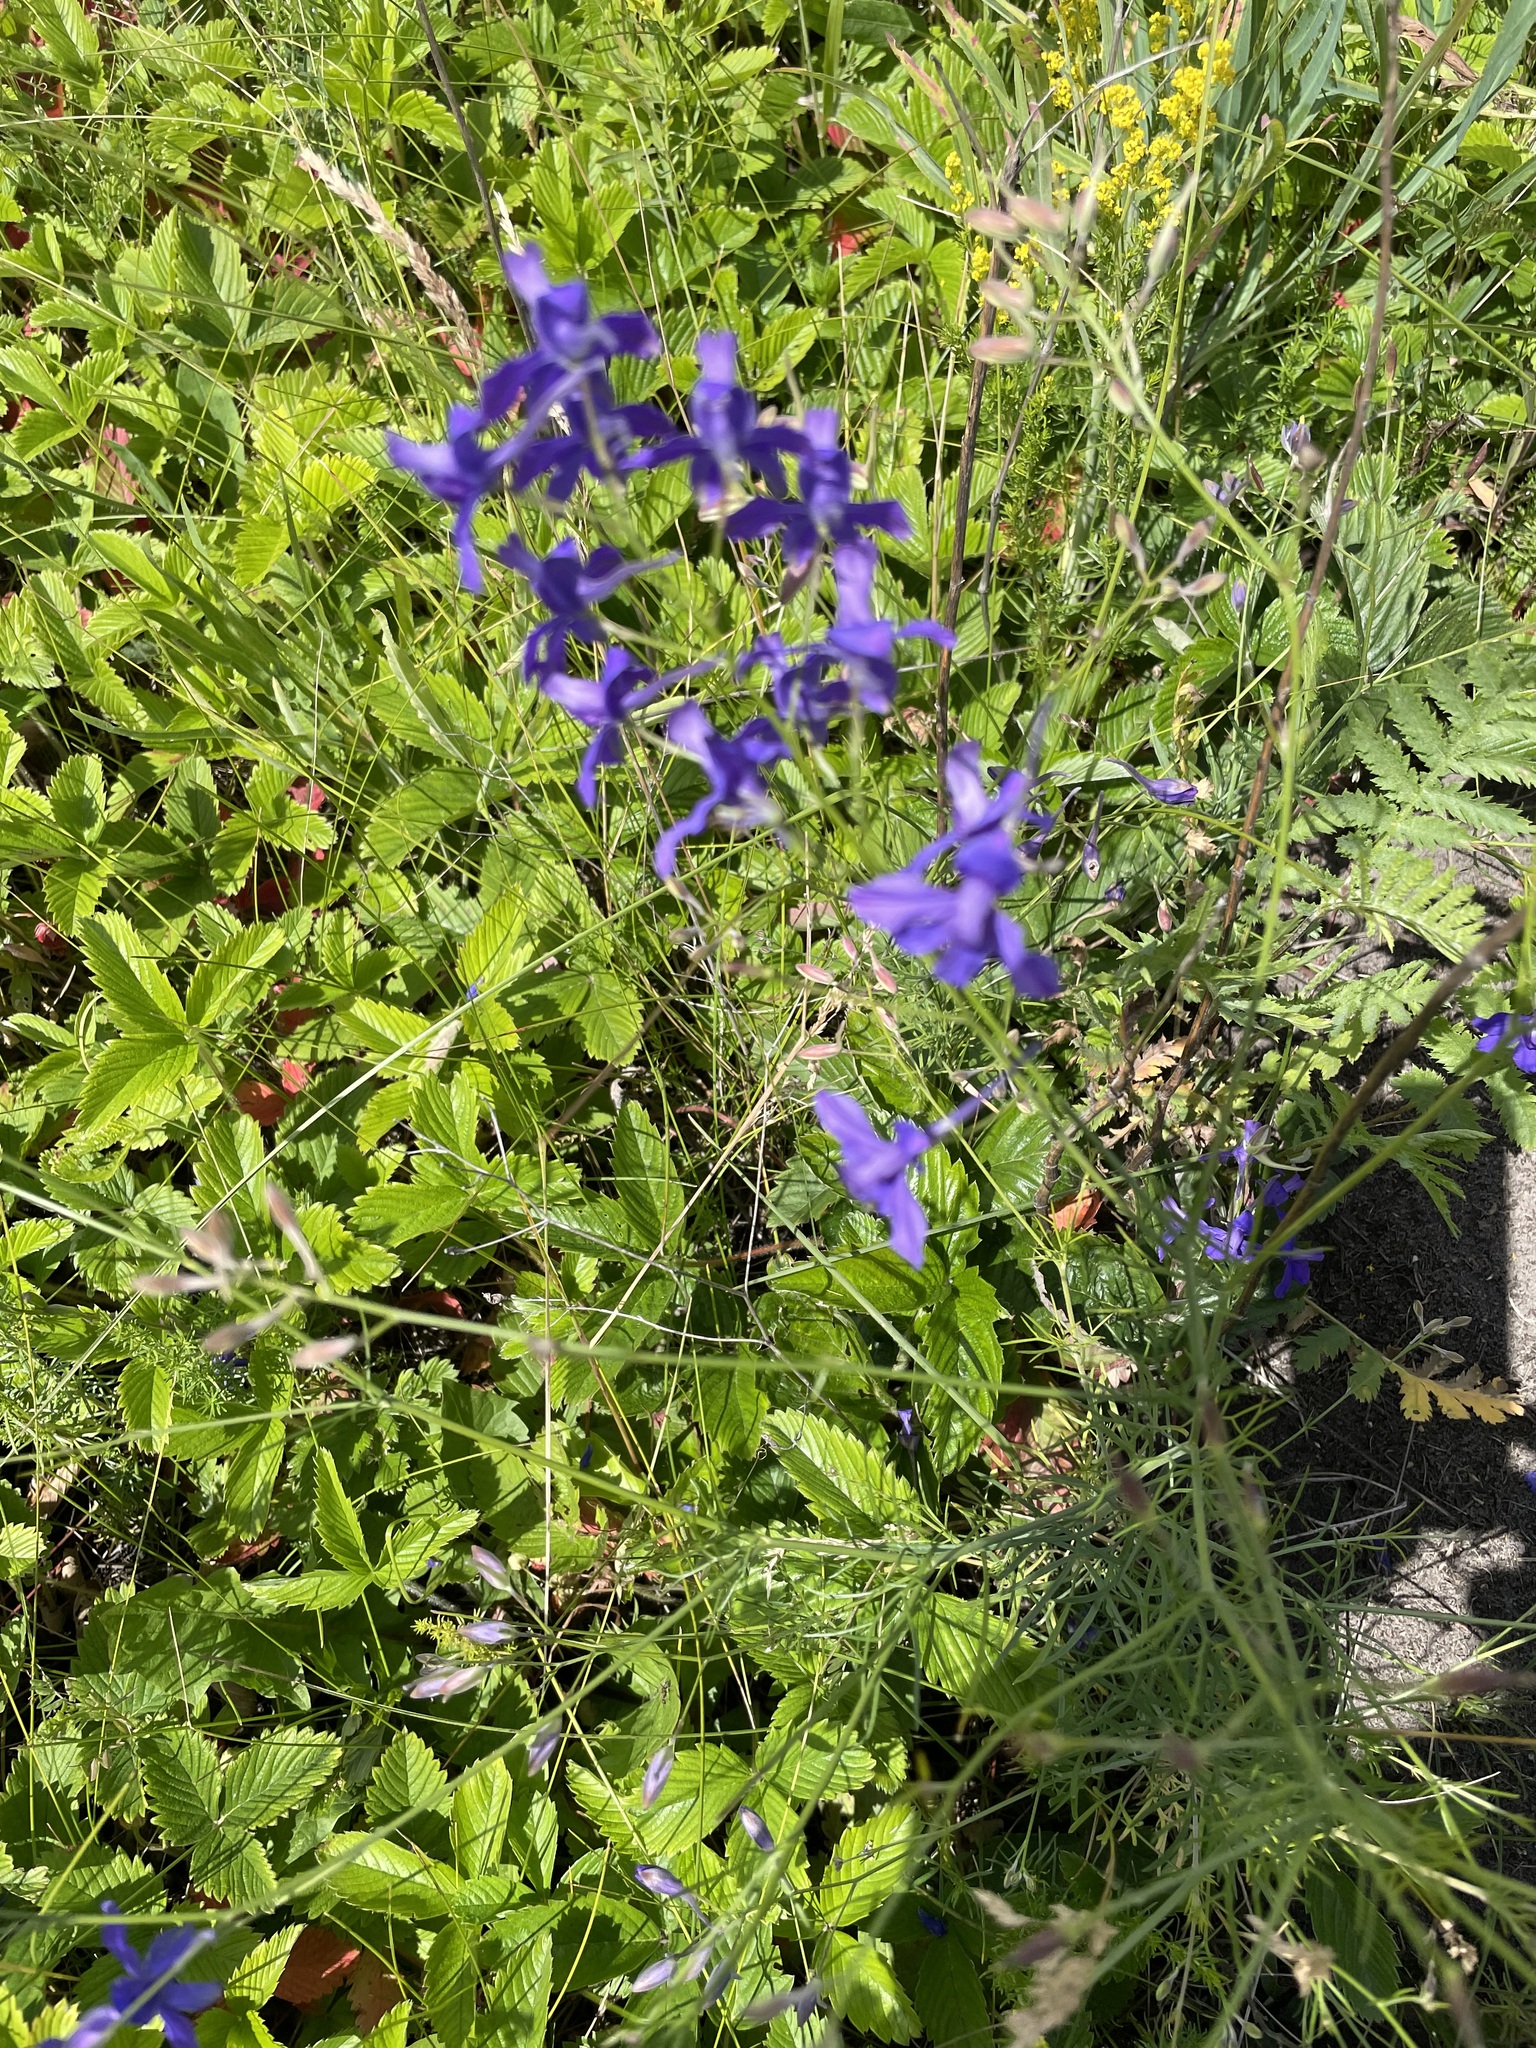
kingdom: Plantae
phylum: Tracheophyta
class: Magnoliopsida
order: Ranunculales
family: Ranunculaceae
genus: Delphinium
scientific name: Delphinium consolida
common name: Branching larkspur
